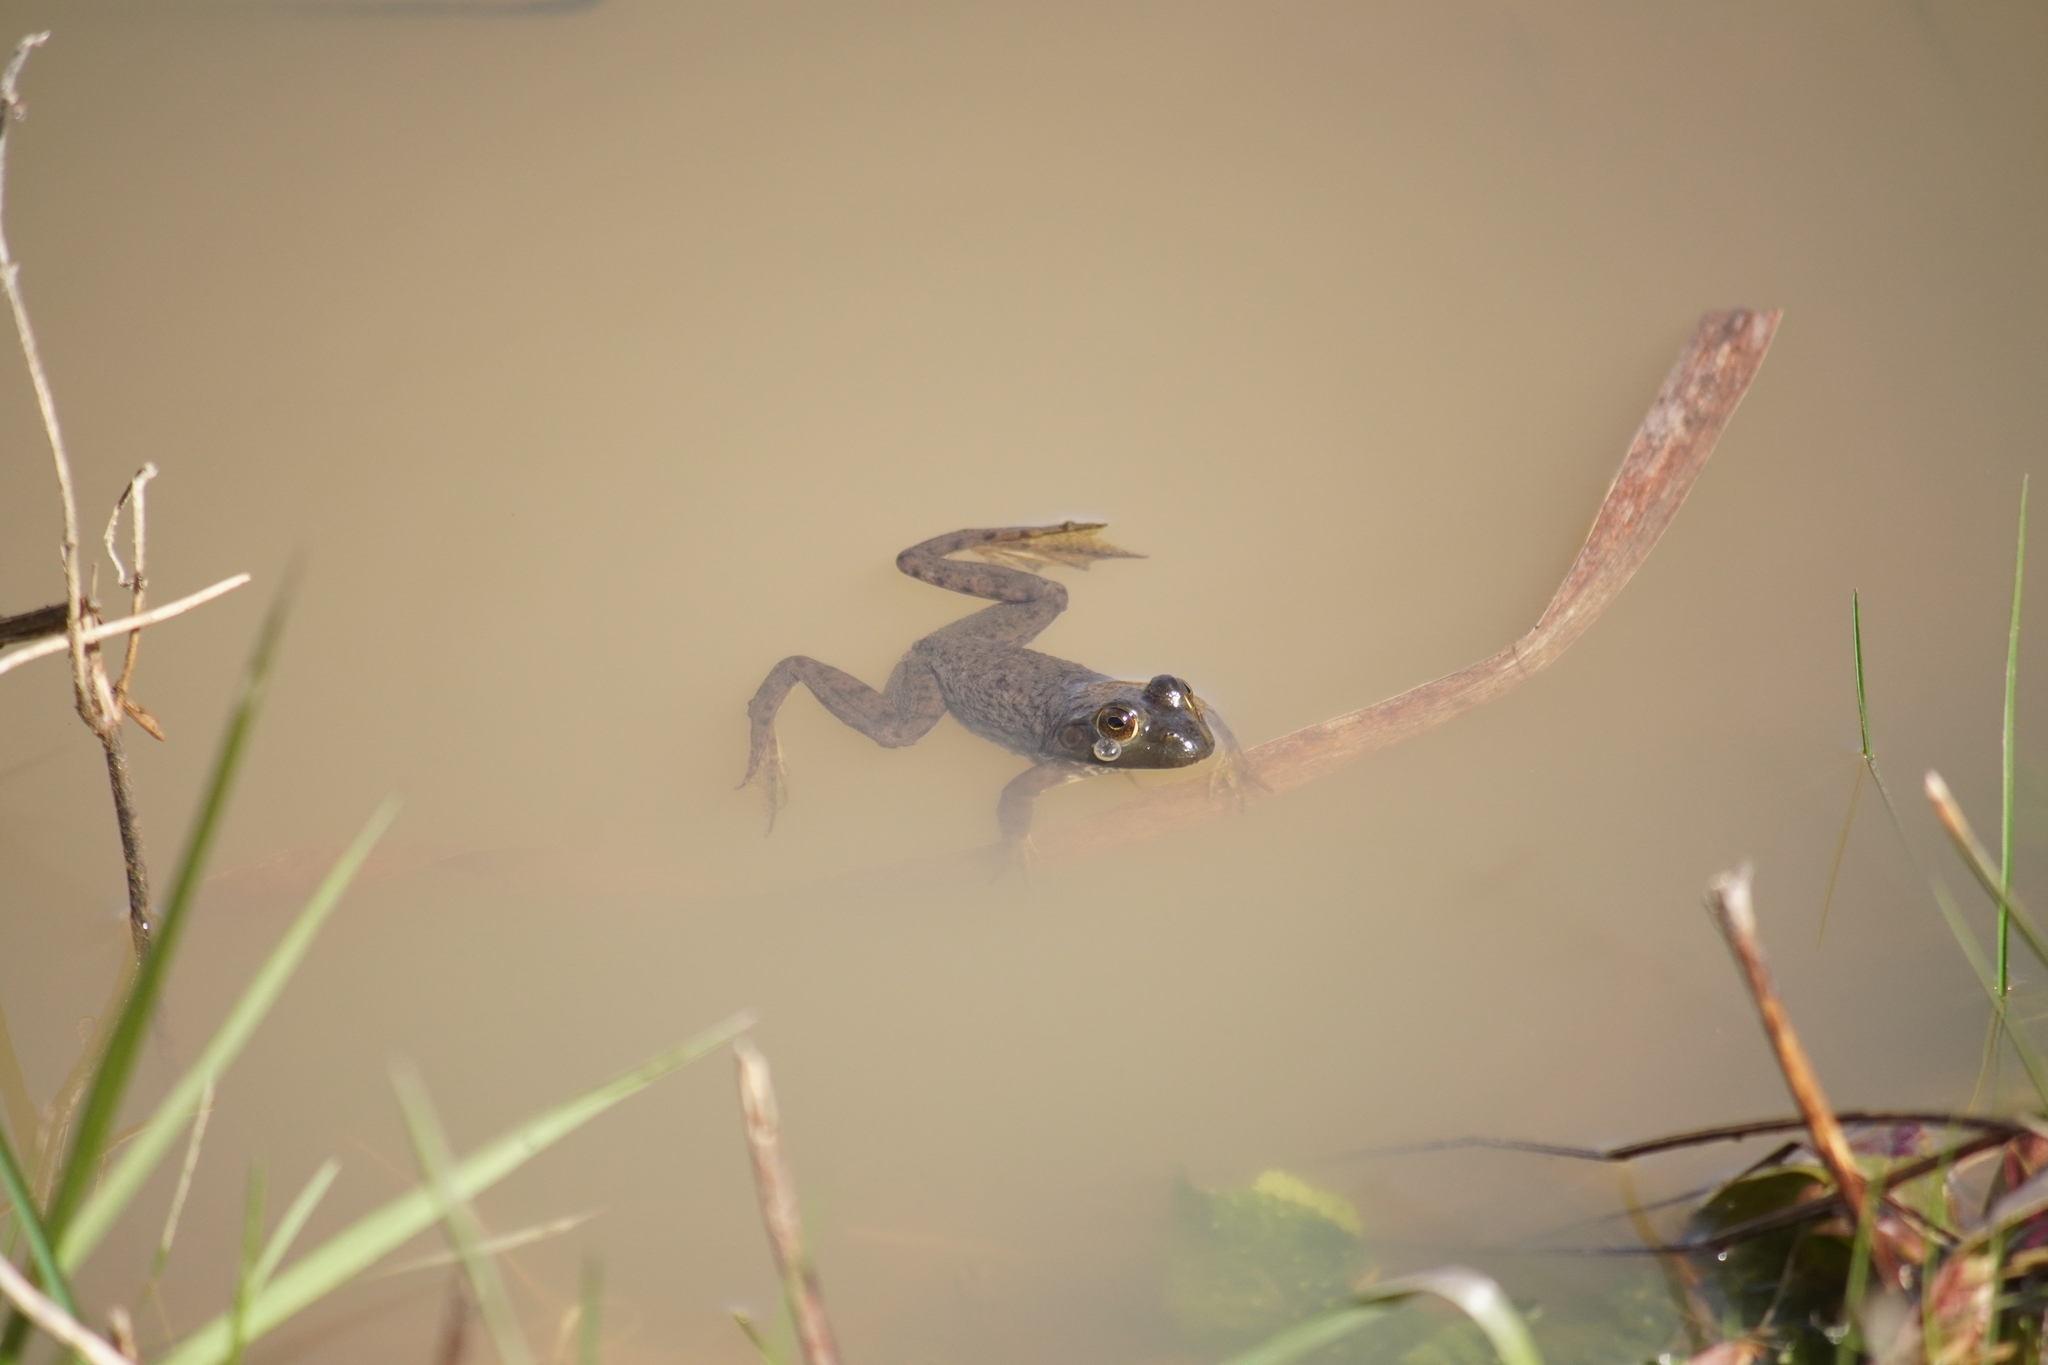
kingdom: Animalia
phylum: Chordata
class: Amphibia
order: Anura
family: Ranidae
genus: Lithobates
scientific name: Lithobates catesbeianus
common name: American bullfrog
